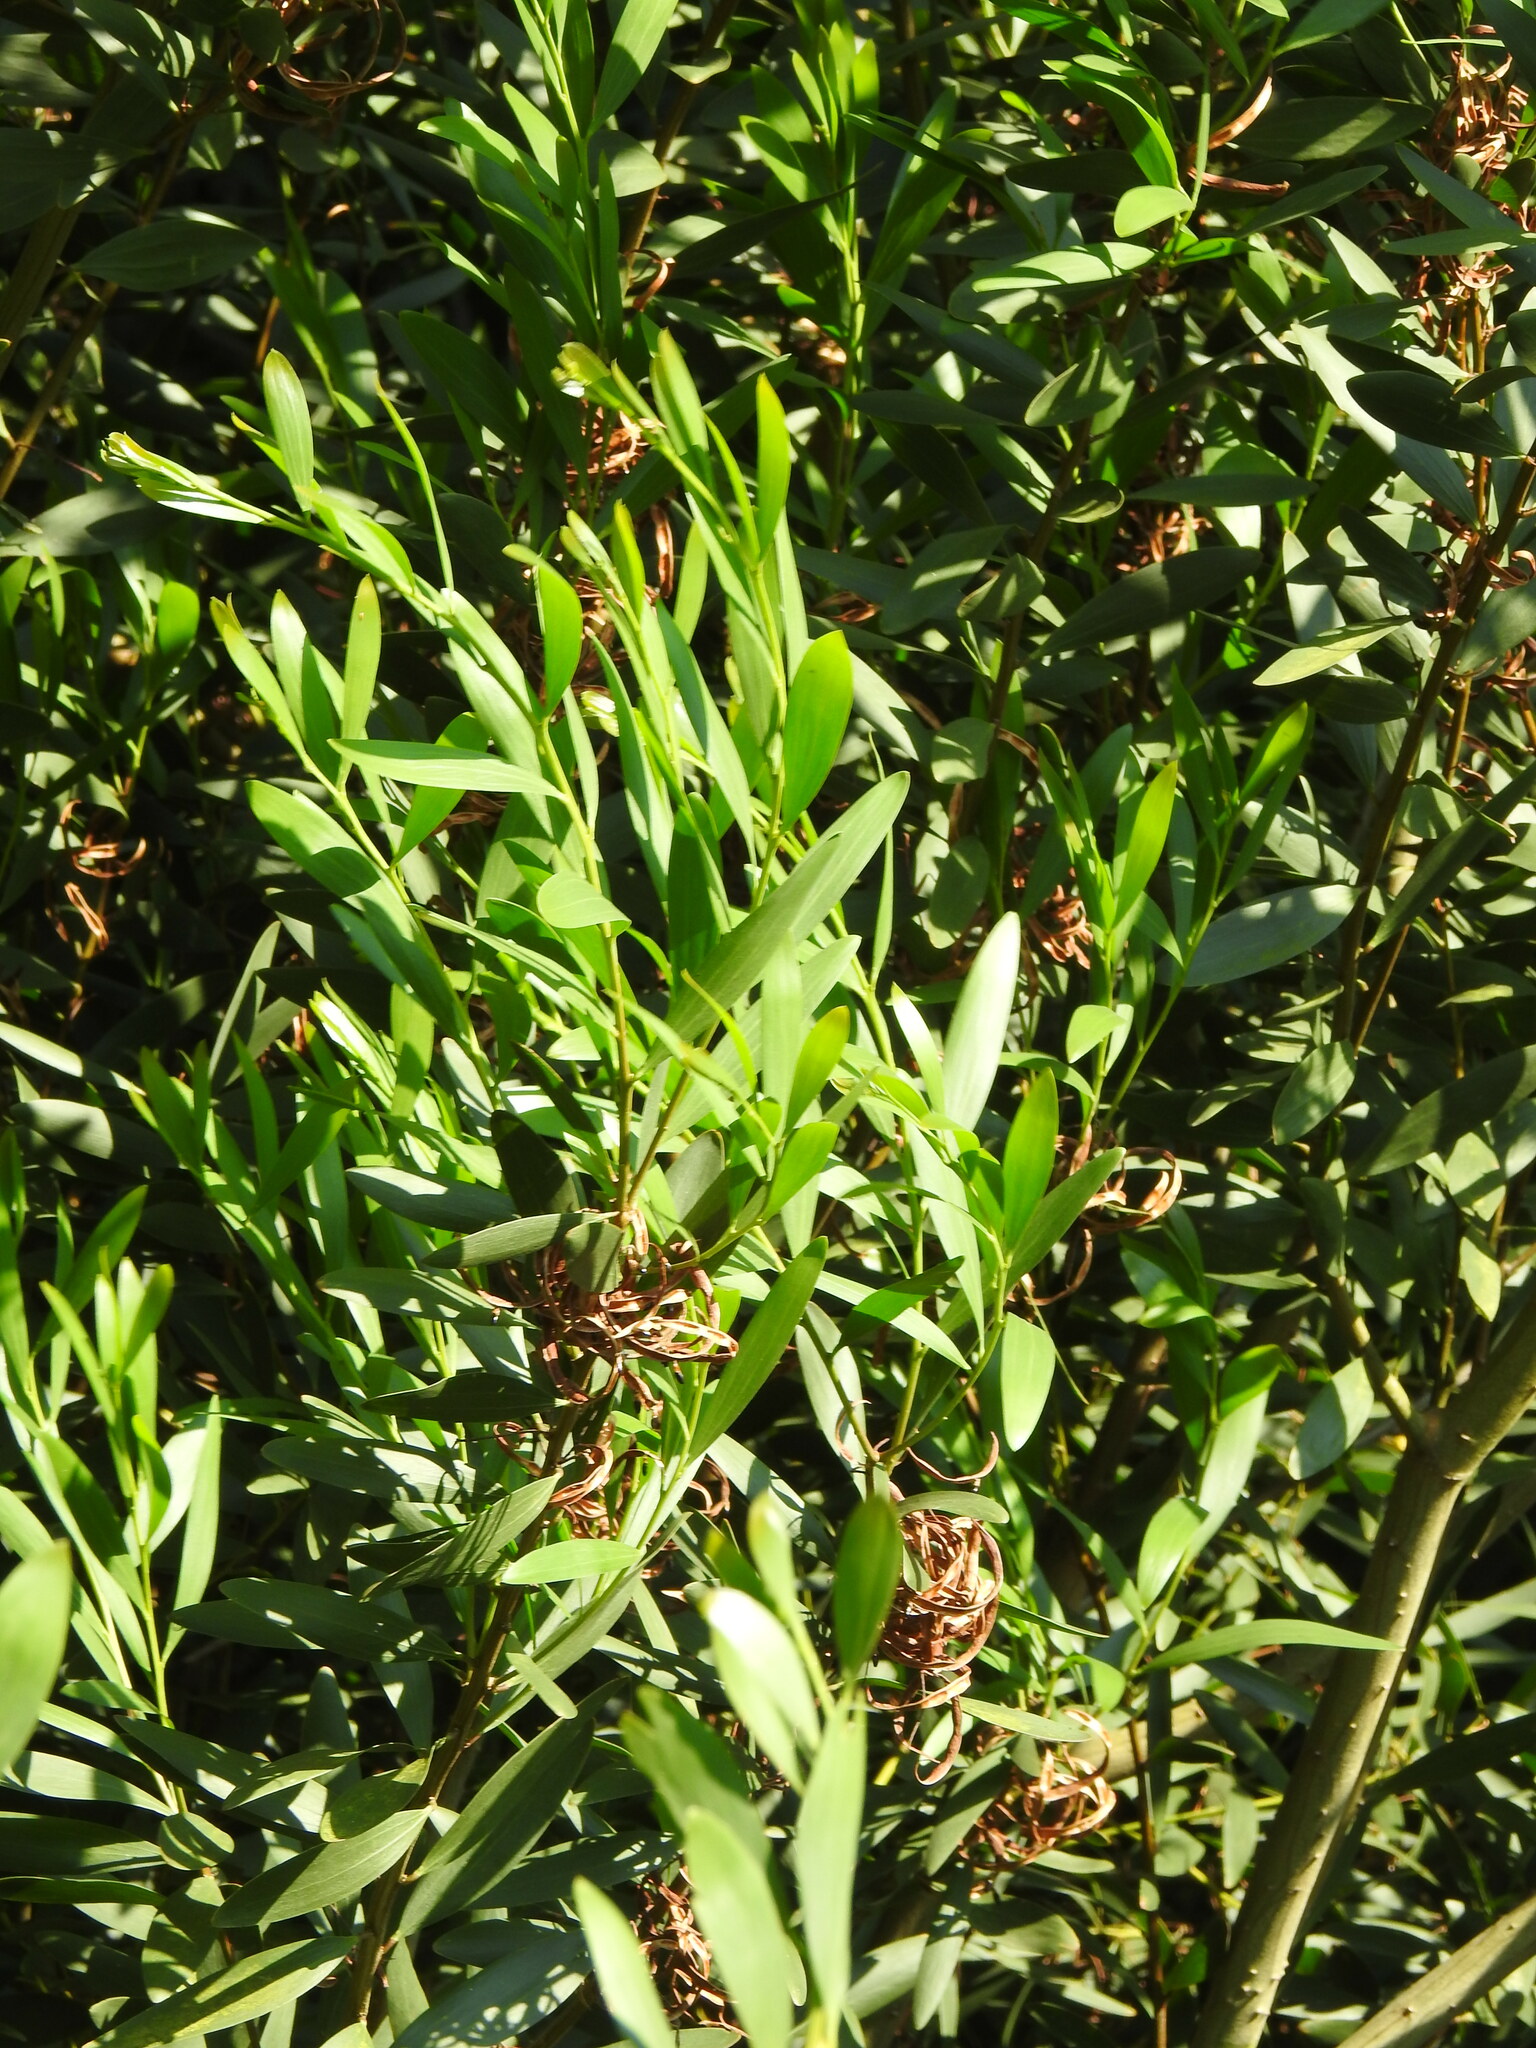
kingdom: Plantae
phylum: Tracheophyta
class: Magnoliopsida
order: Fabales
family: Fabaceae
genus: Acacia
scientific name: Acacia longifolia
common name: Sydney golden wattle
